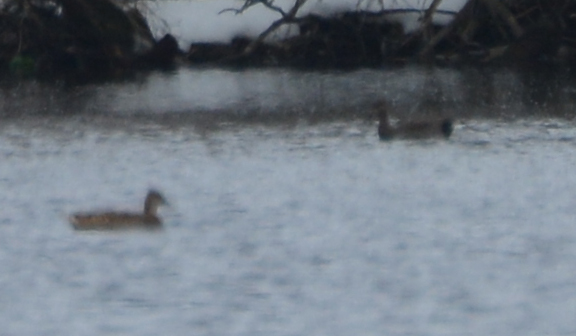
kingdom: Animalia
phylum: Chordata
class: Aves
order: Anseriformes
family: Anatidae
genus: Mareca
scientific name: Mareca strepera
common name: Gadwall
